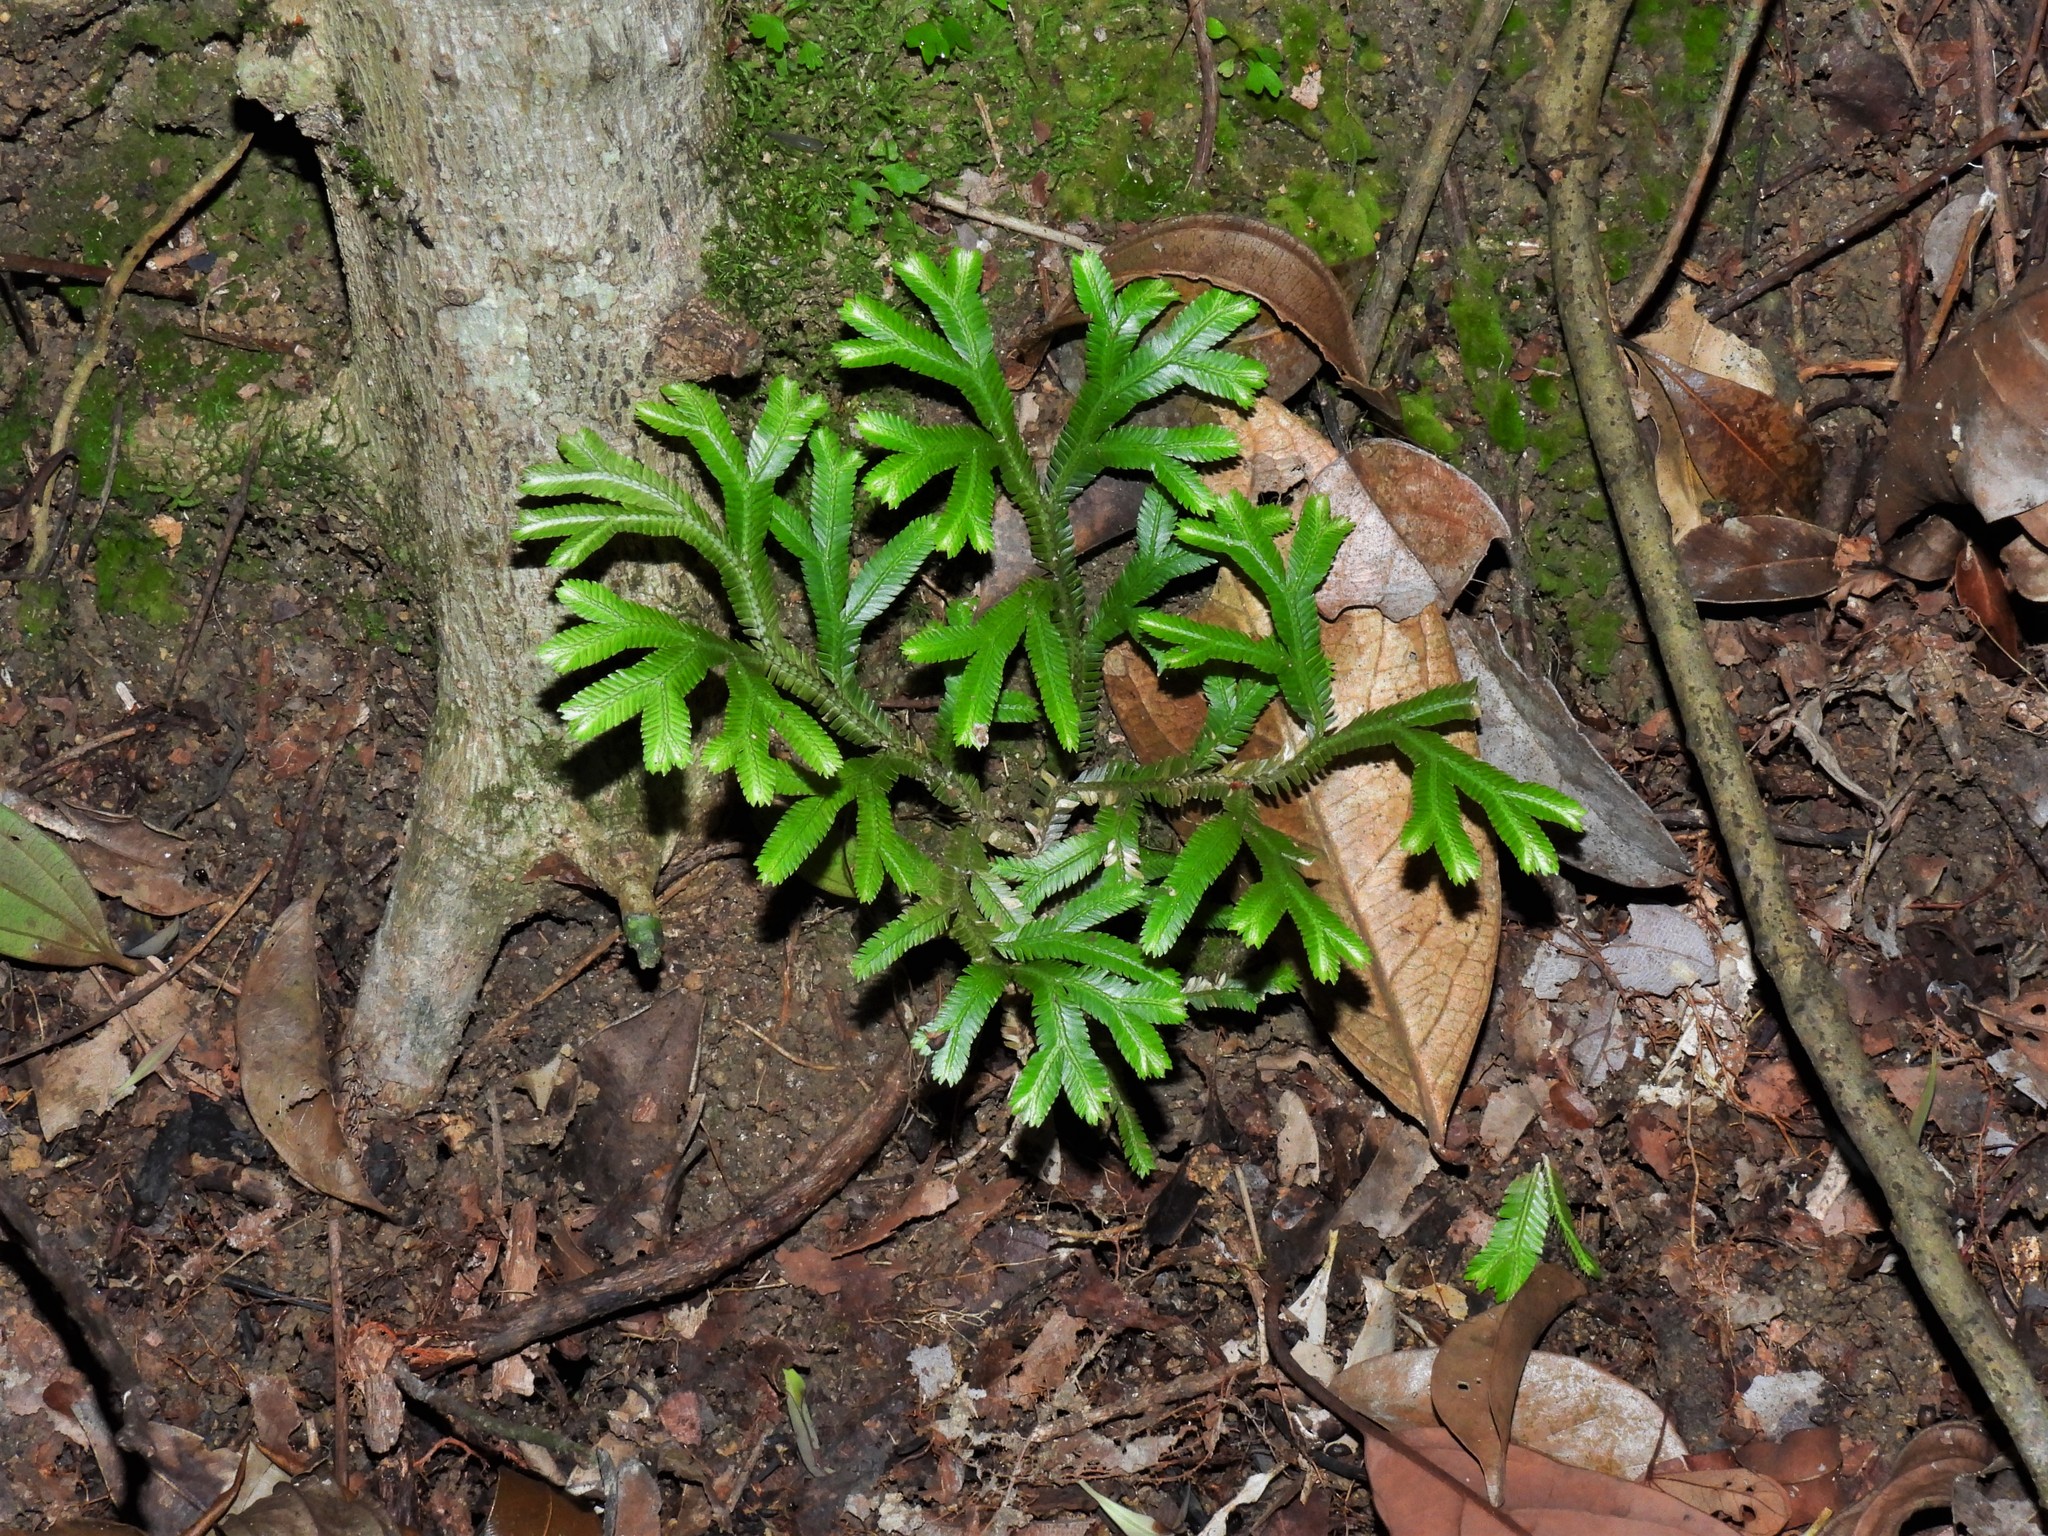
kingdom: Plantae
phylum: Tracheophyta
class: Lycopodiopsida
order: Selaginellales
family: Selaginellaceae
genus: Selaginella
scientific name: Selaginella intermedia
